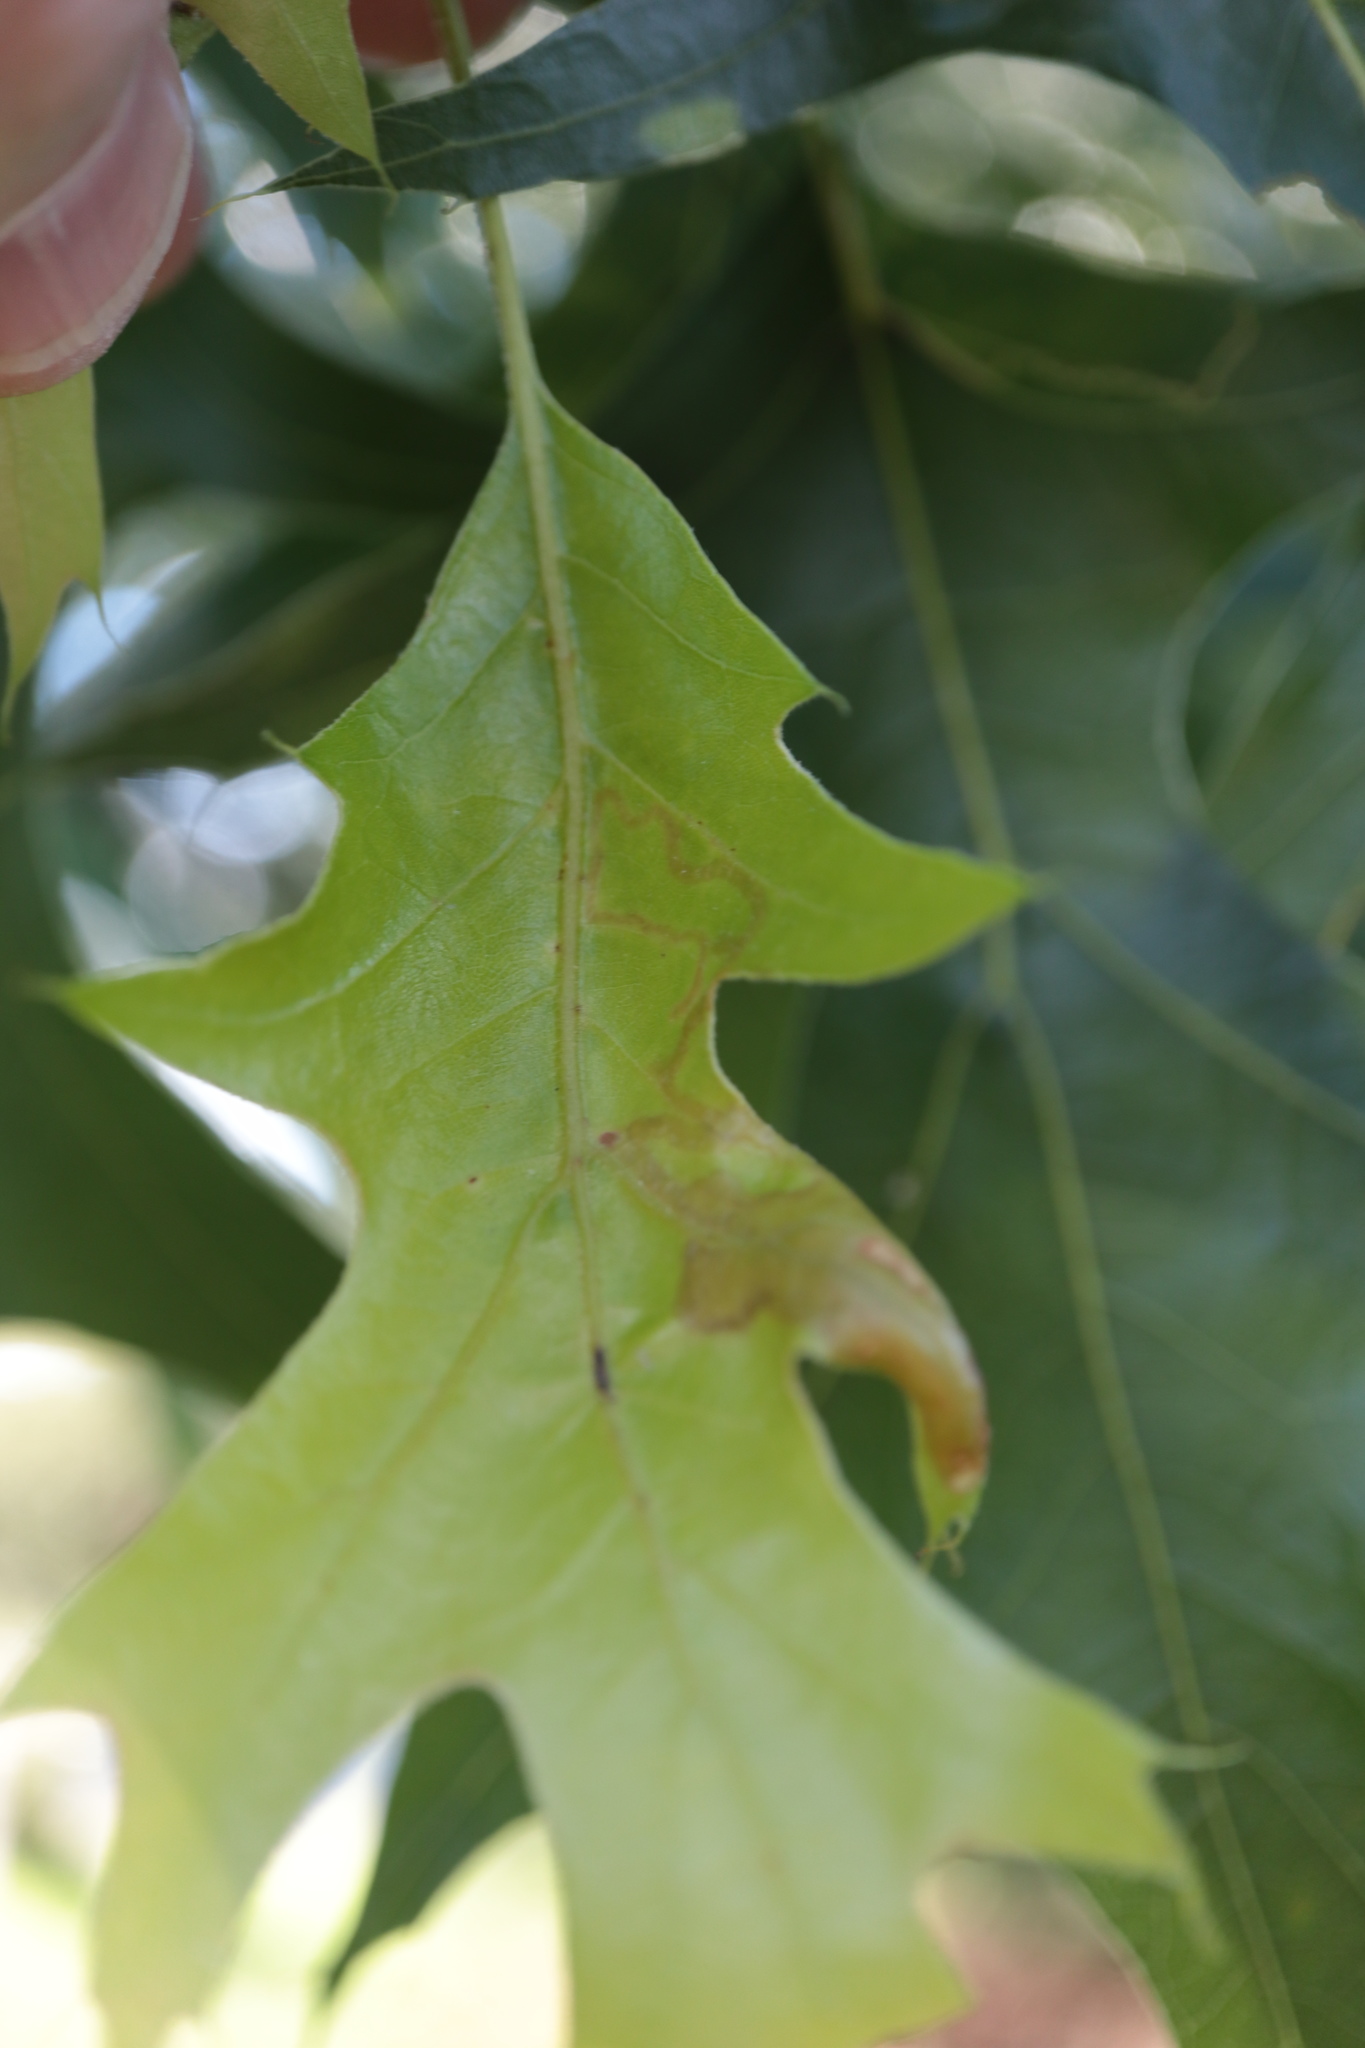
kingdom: Animalia
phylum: Arthropoda
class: Insecta
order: Lepidoptera
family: Gracillariidae
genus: Acrocercops
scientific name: Acrocercops albinatella
